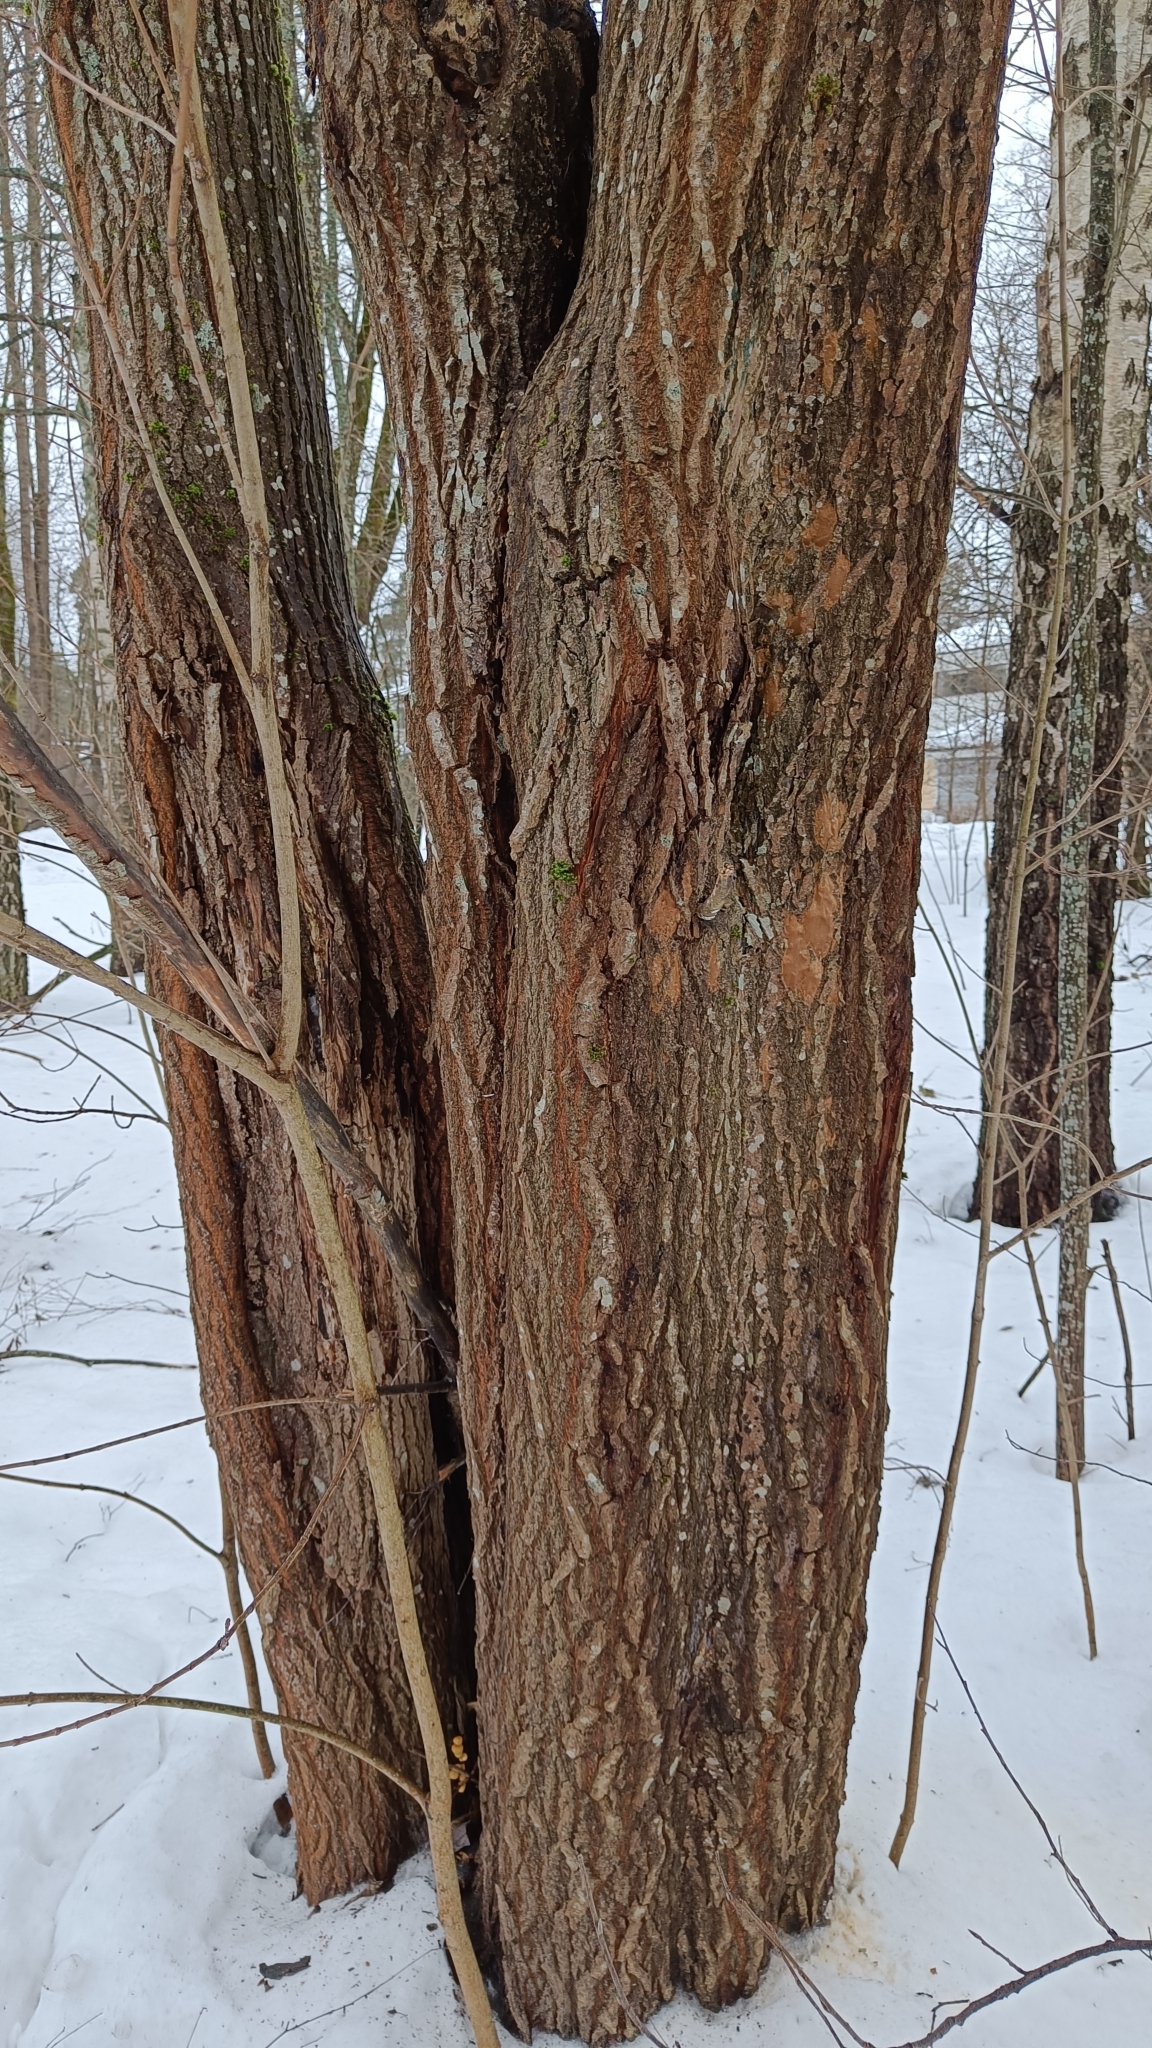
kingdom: Fungi
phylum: Basidiomycota
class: Agaricomycetes
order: Hymenochaetales
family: Hymenochaetaceae
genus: Fomitiporia
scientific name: Fomitiporia punctata
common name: Elbowpatch crust
